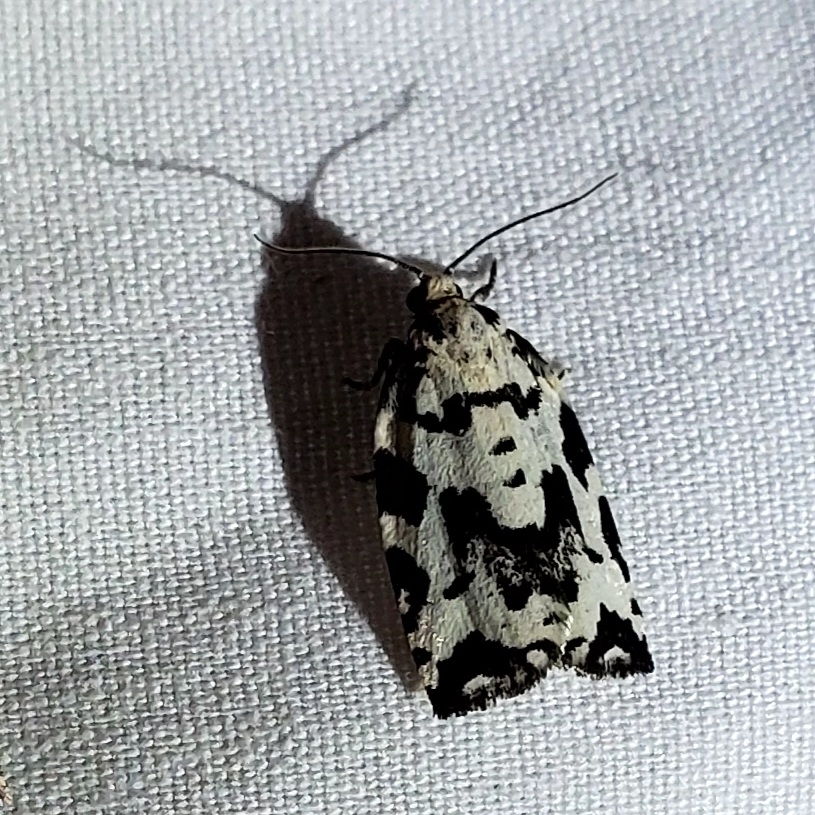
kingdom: Animalia
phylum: Arthropoda
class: Insecta
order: Lepidoptera
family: Tortricidae
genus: Archips
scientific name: Archips dissitana
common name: Boldly-marked archips moth
